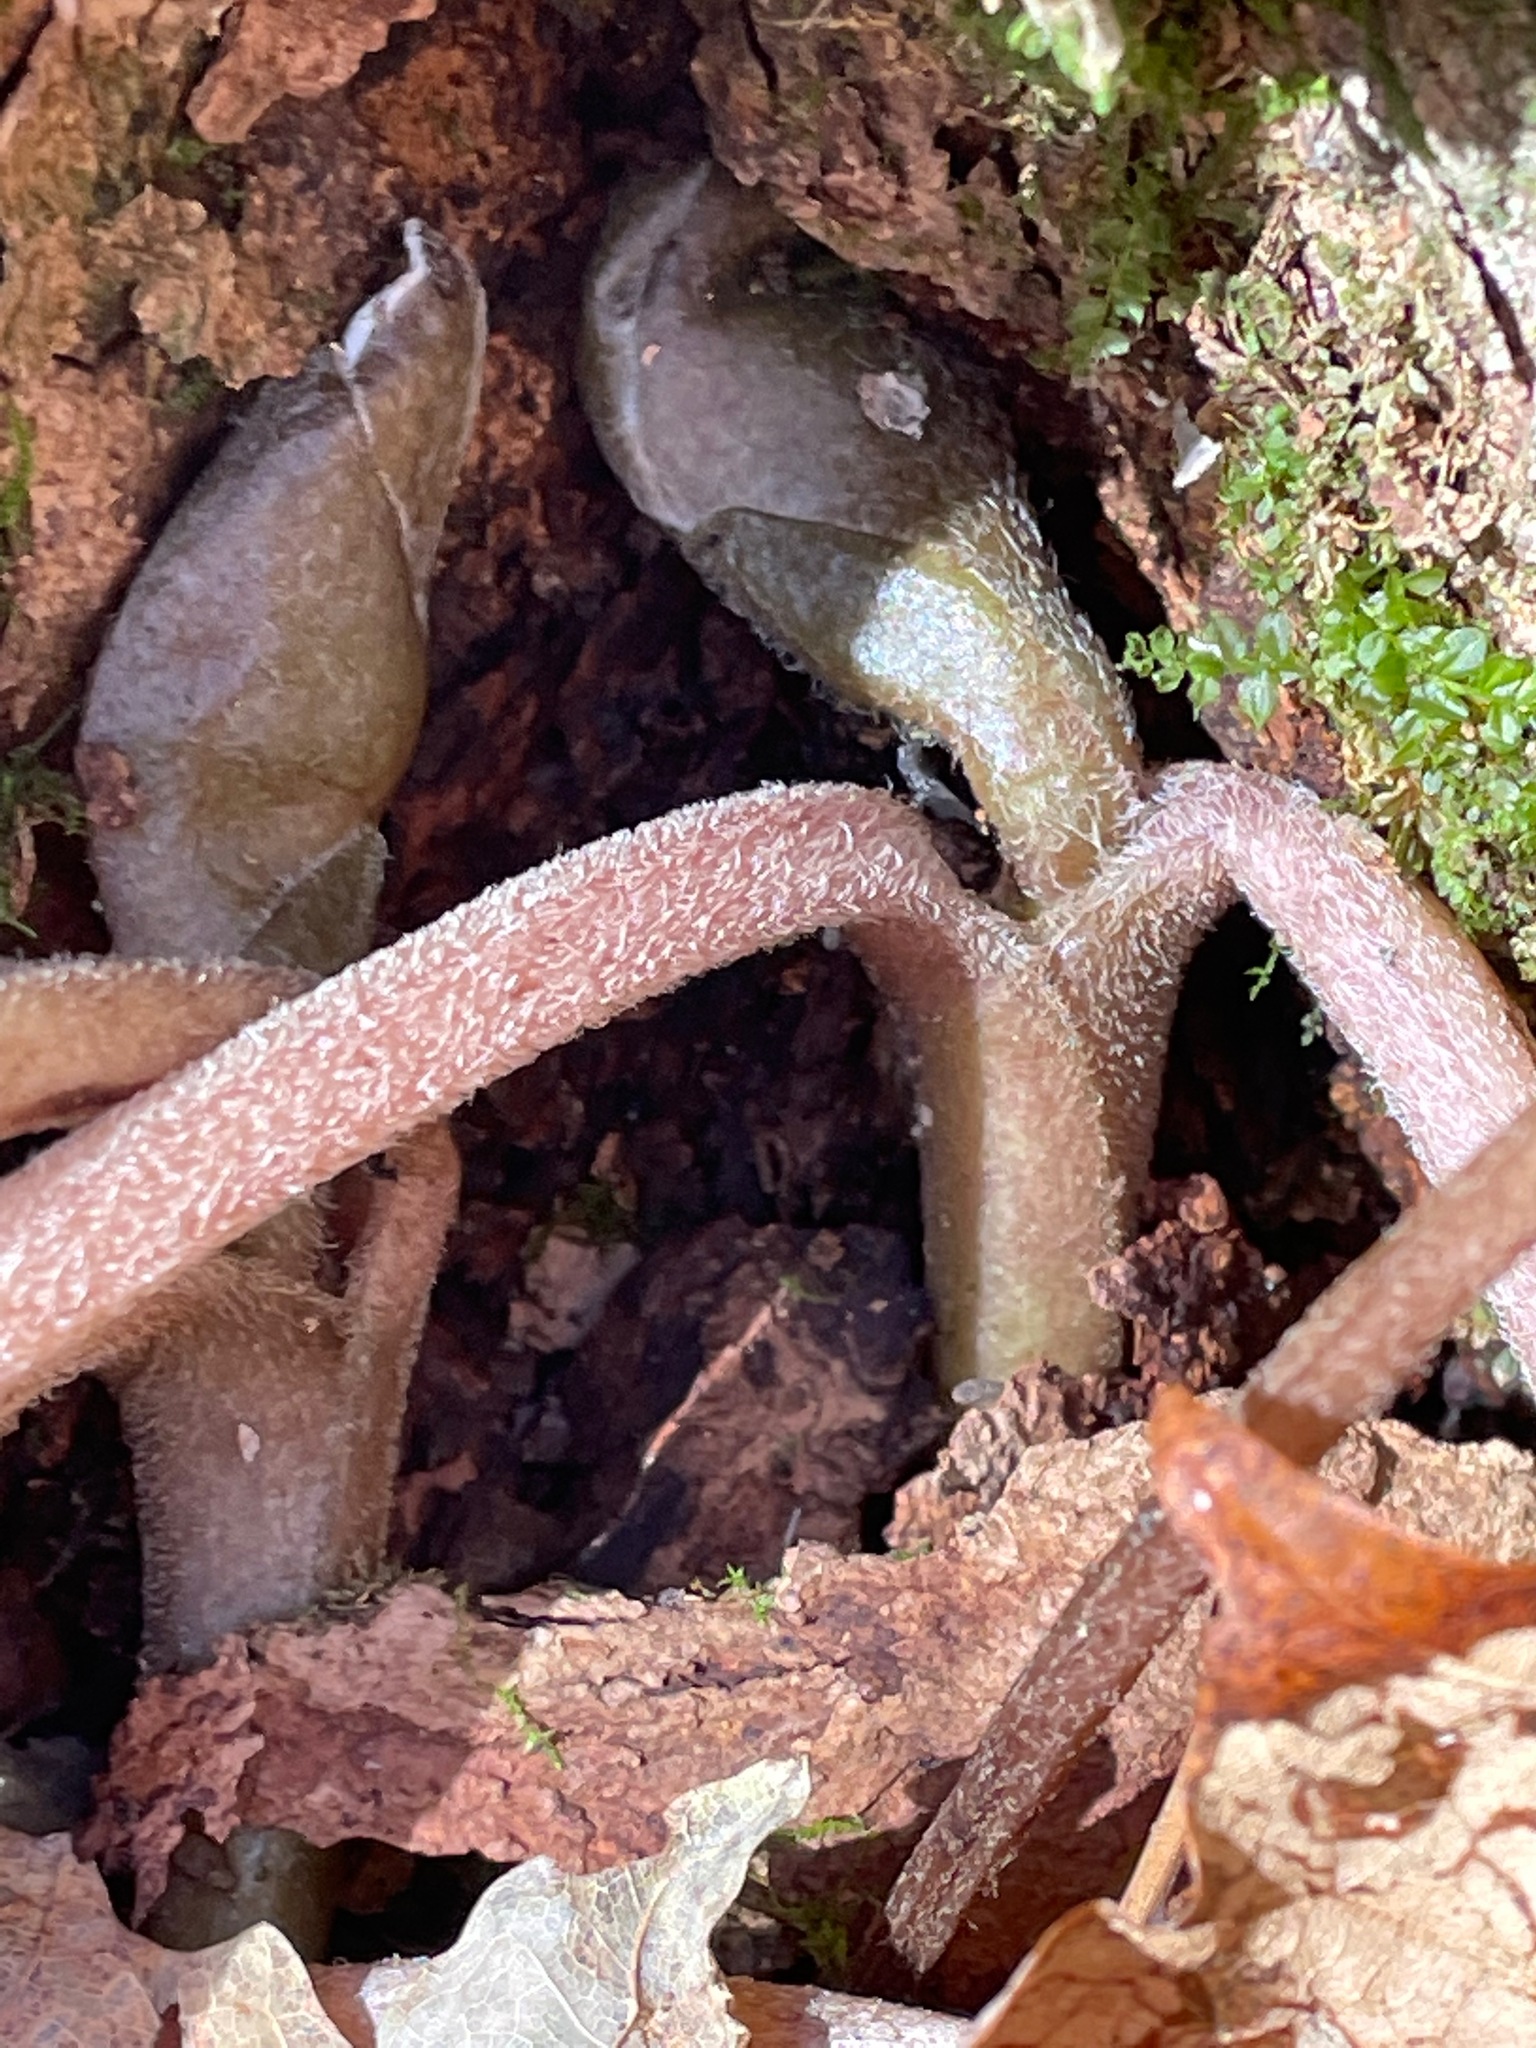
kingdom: Plantae
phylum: Tracheophyta
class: Magnoliopsida
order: Piperales
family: Aristolochiaceae
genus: Asarum
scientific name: Asarum canadense
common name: Wild ginger
